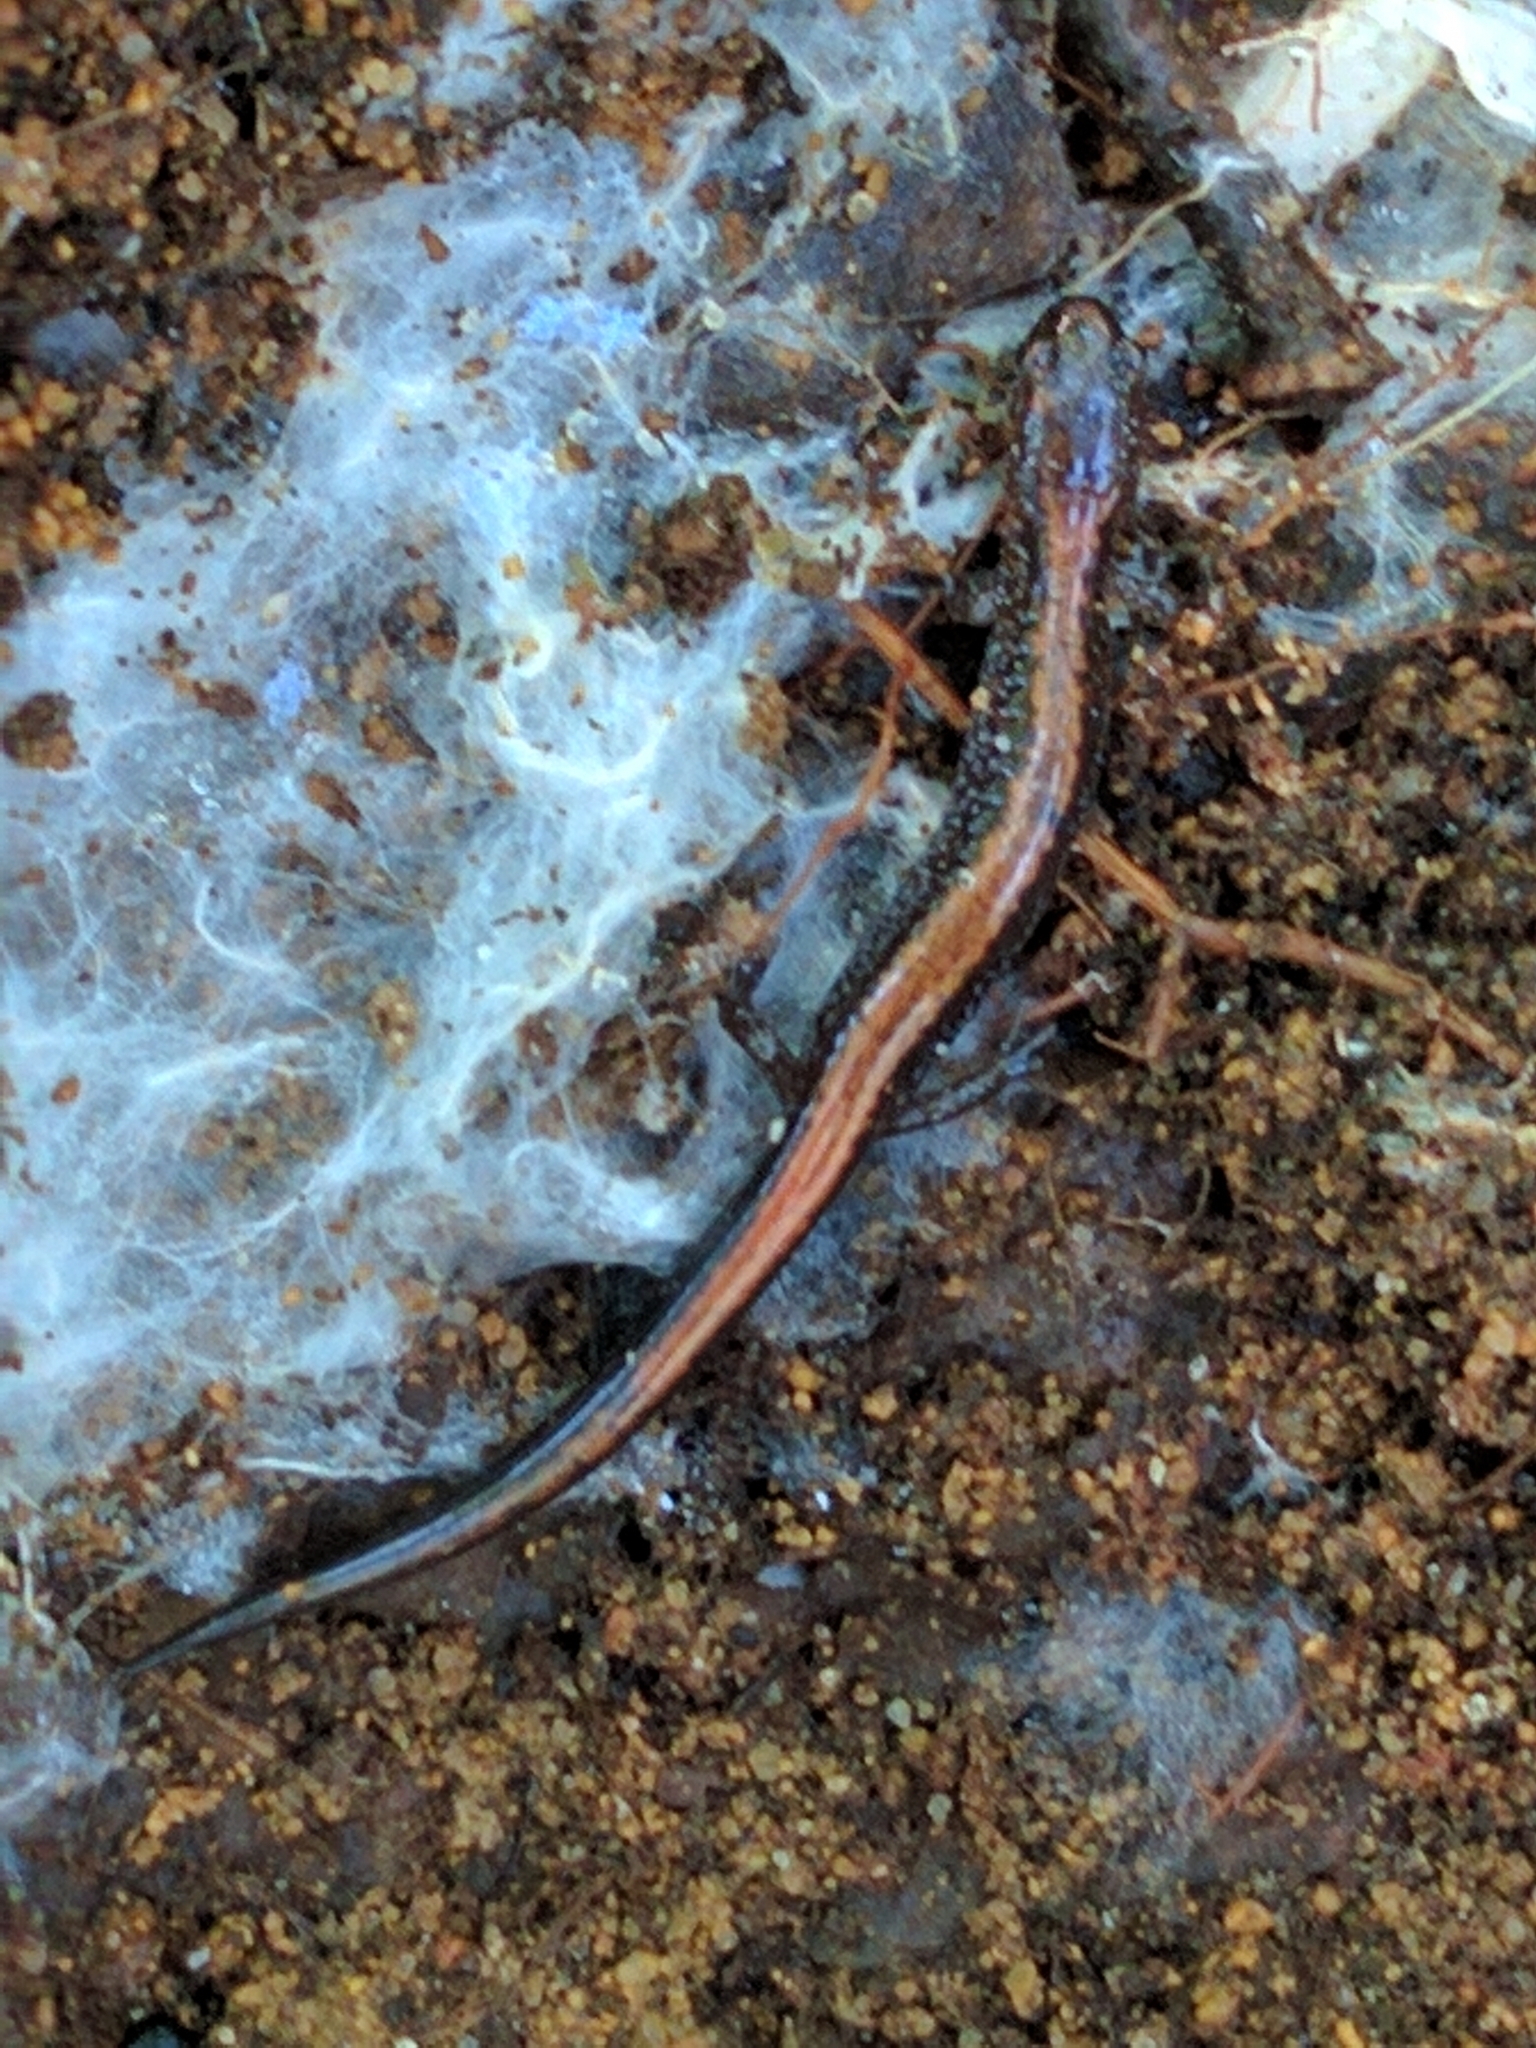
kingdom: Animalia
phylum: Chordata
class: Amphibia
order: Caudata
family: Plethodontidae
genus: Plethodon
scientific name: Plethodon cinereus
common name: Redback salamander
